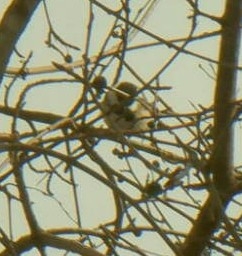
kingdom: Animalia
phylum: Chordata
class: Aves
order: Passeriformes
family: Paridae
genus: Poecile
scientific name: Poecile atricapillus
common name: Black-capped chickadee
